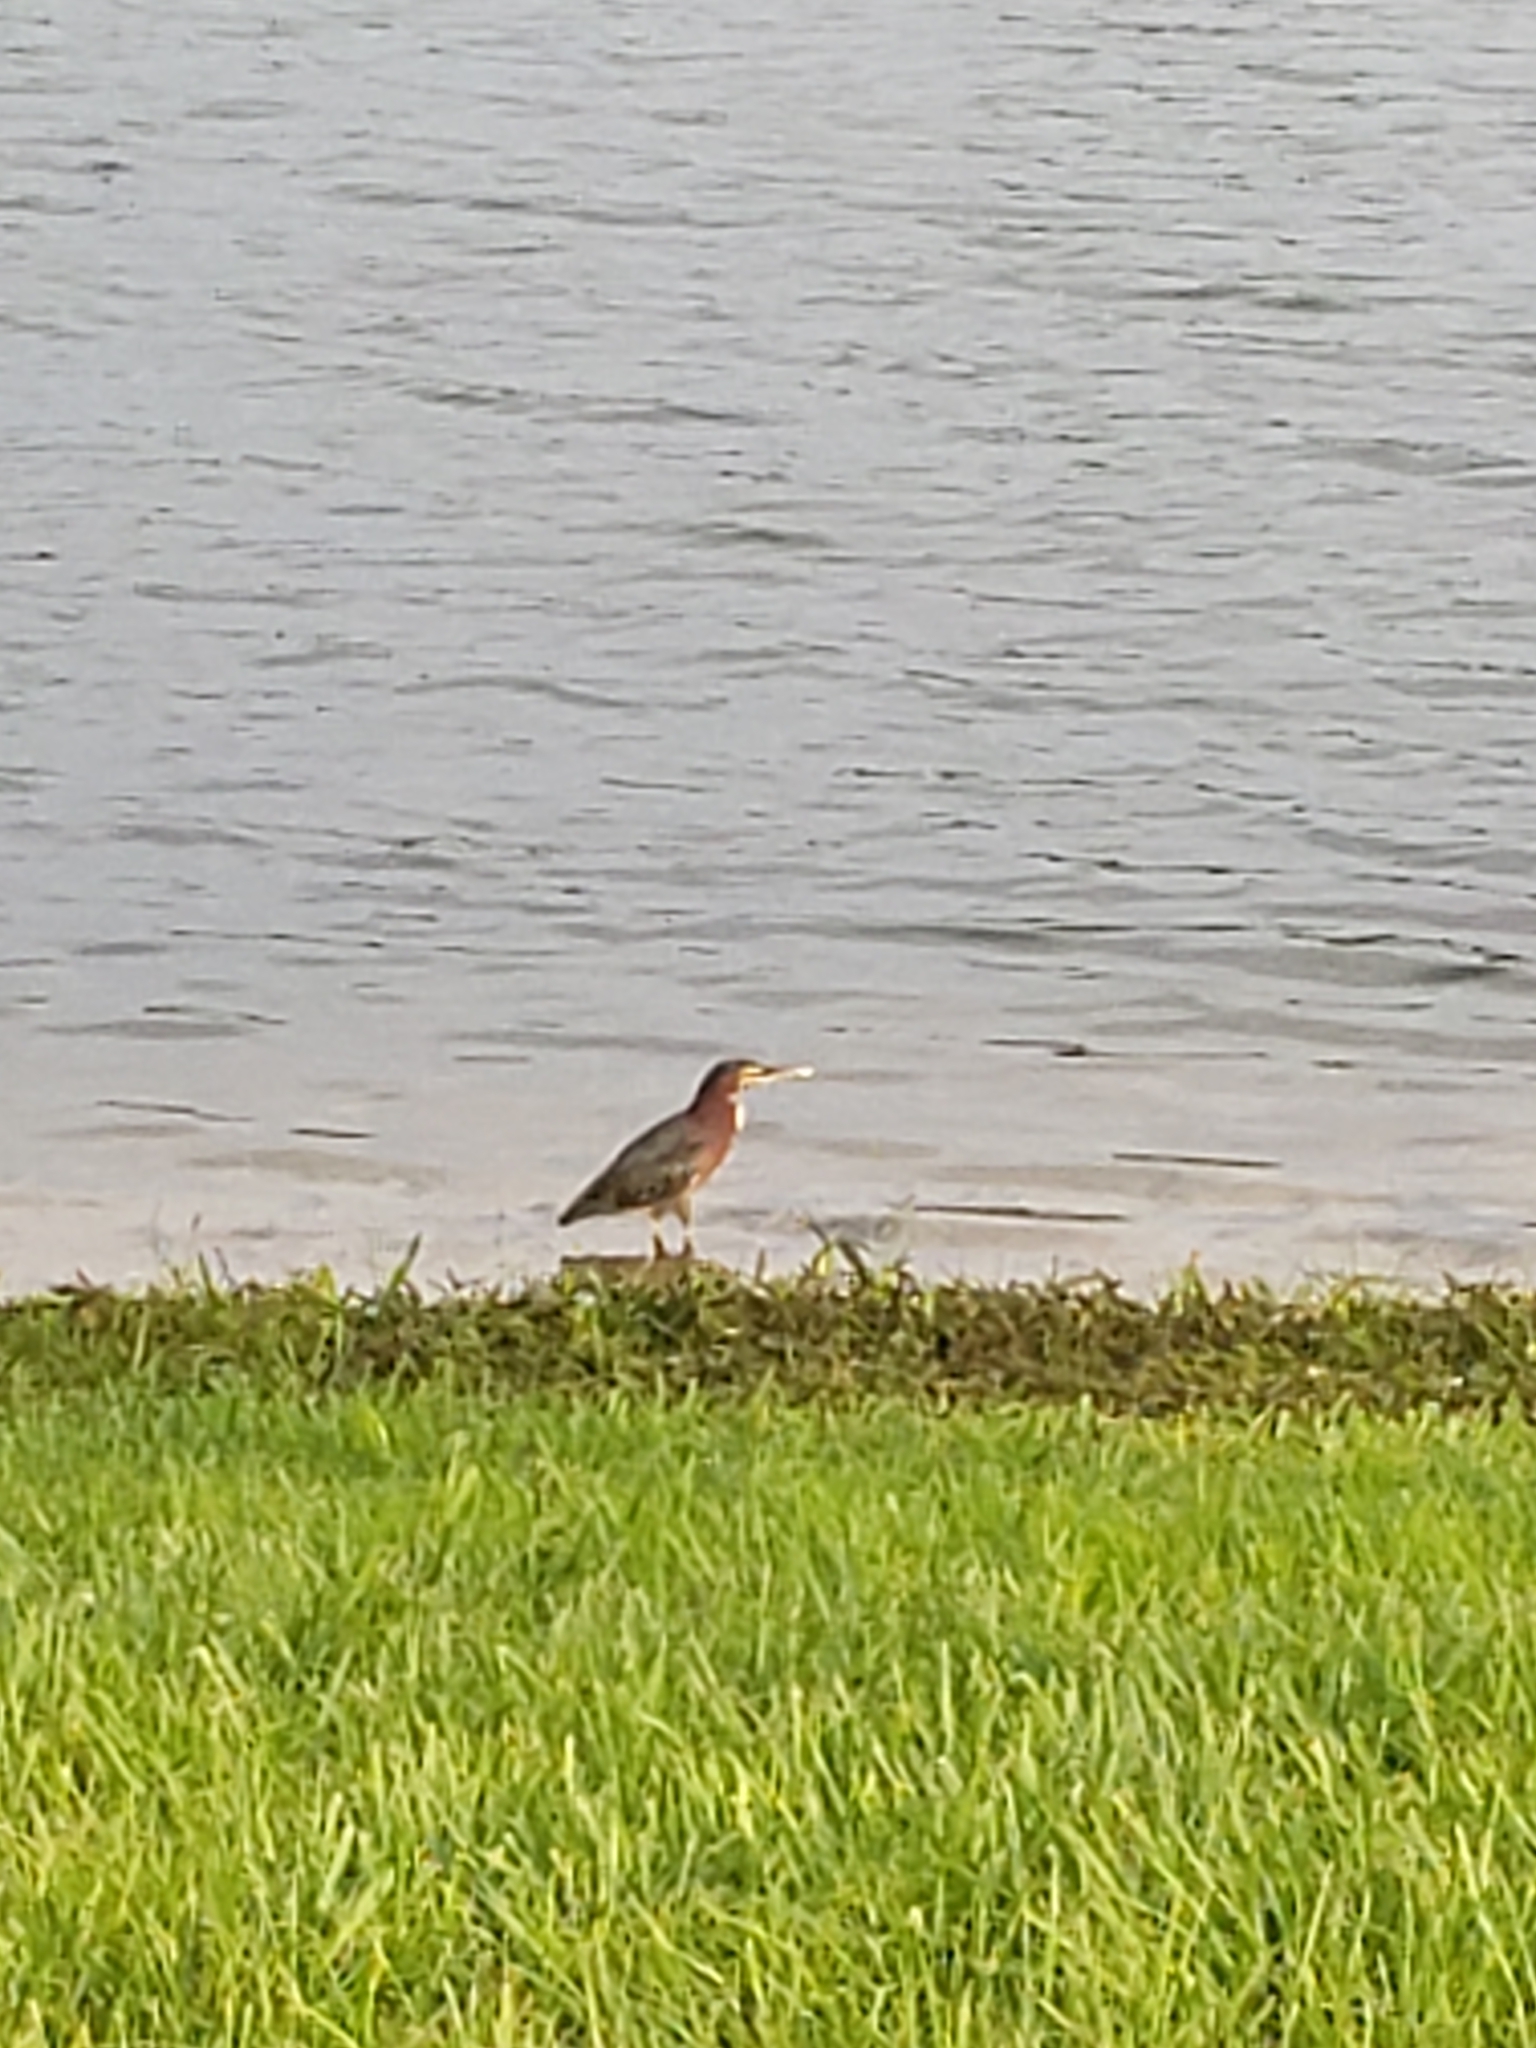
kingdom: Animalia
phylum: Chordata
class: Aves
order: Pelecaniformes
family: Ardeidae
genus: Butorides
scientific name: Butorides virescens
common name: Green heron
